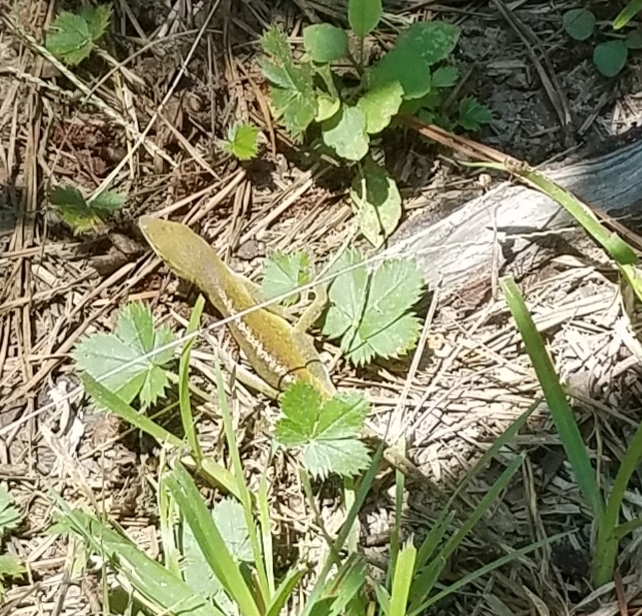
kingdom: Animalia
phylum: Chordata
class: Squamata
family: Dactyloidae
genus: Anolis
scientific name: Anolis carolinensis
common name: Green anole
